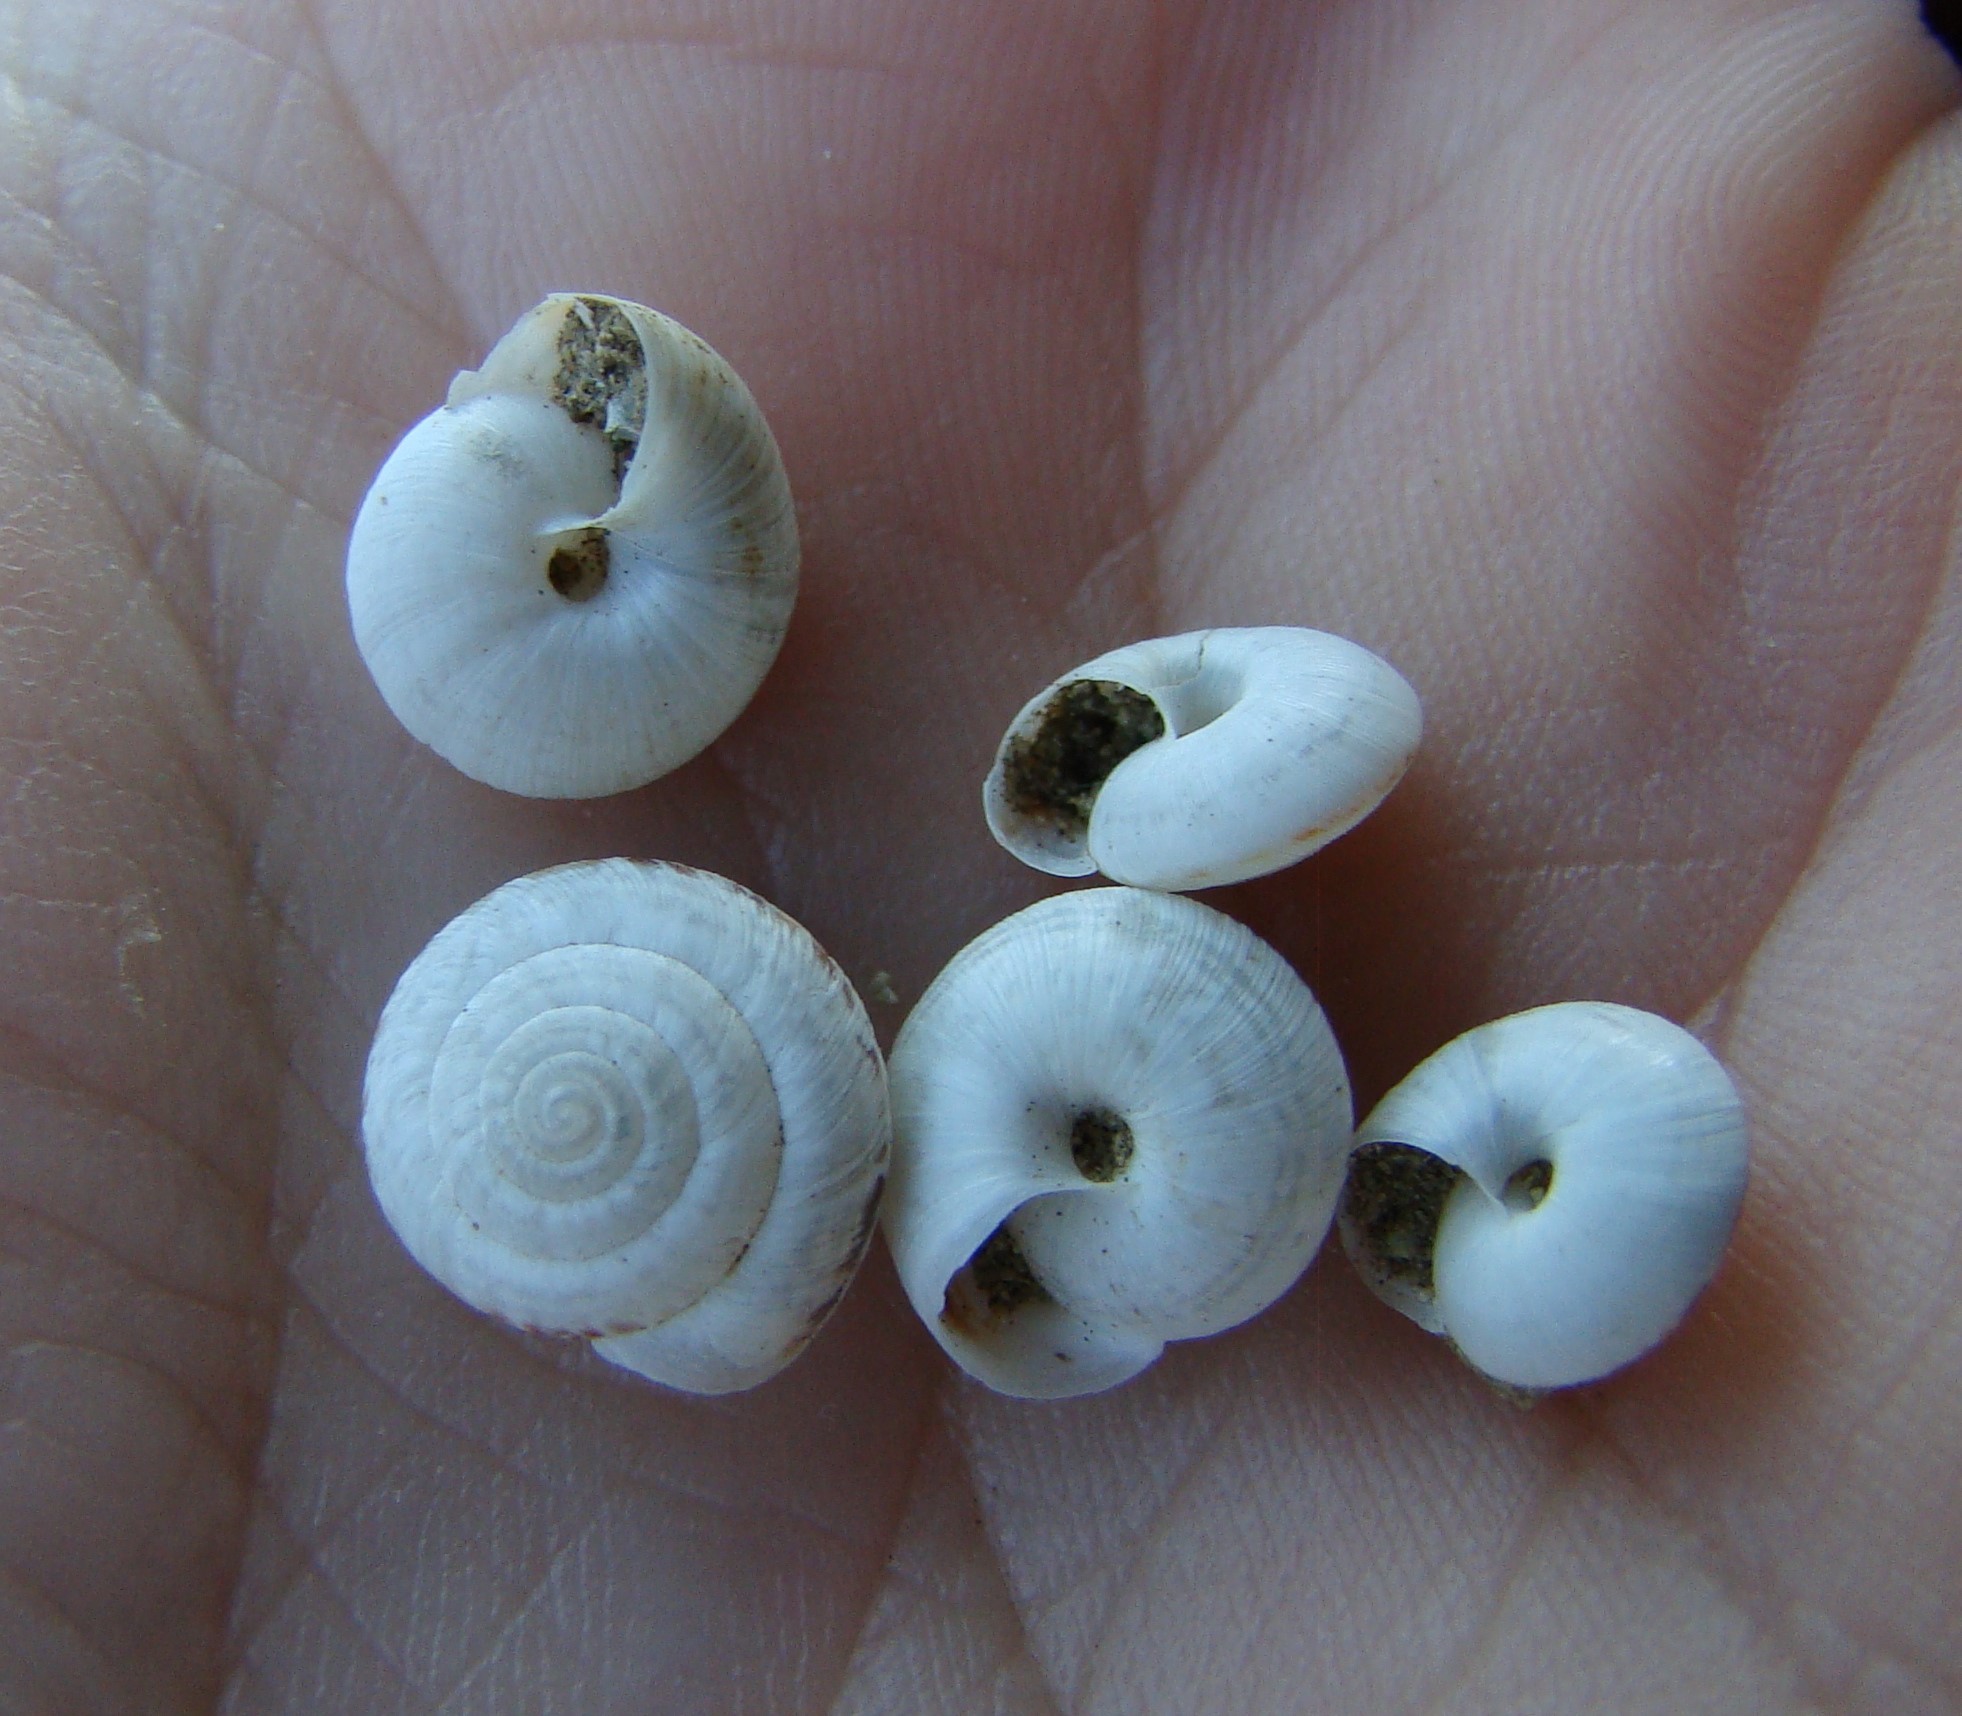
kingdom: Animalia
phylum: Mollusca
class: Gastropoda
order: Stylommatophora
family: Geomitridae
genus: Xeroplexa
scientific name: Xeroplexa intersecta
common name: Wrinkled snail
